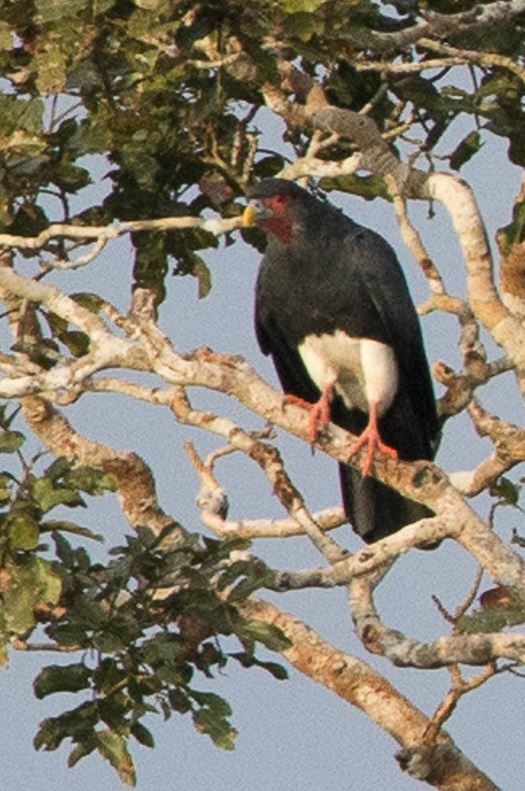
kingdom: Animalia
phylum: Chordata
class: Aves
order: Falconiformes
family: Falconidae
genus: Ibycter
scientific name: Ibycter americanus
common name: Red-throated caracara
